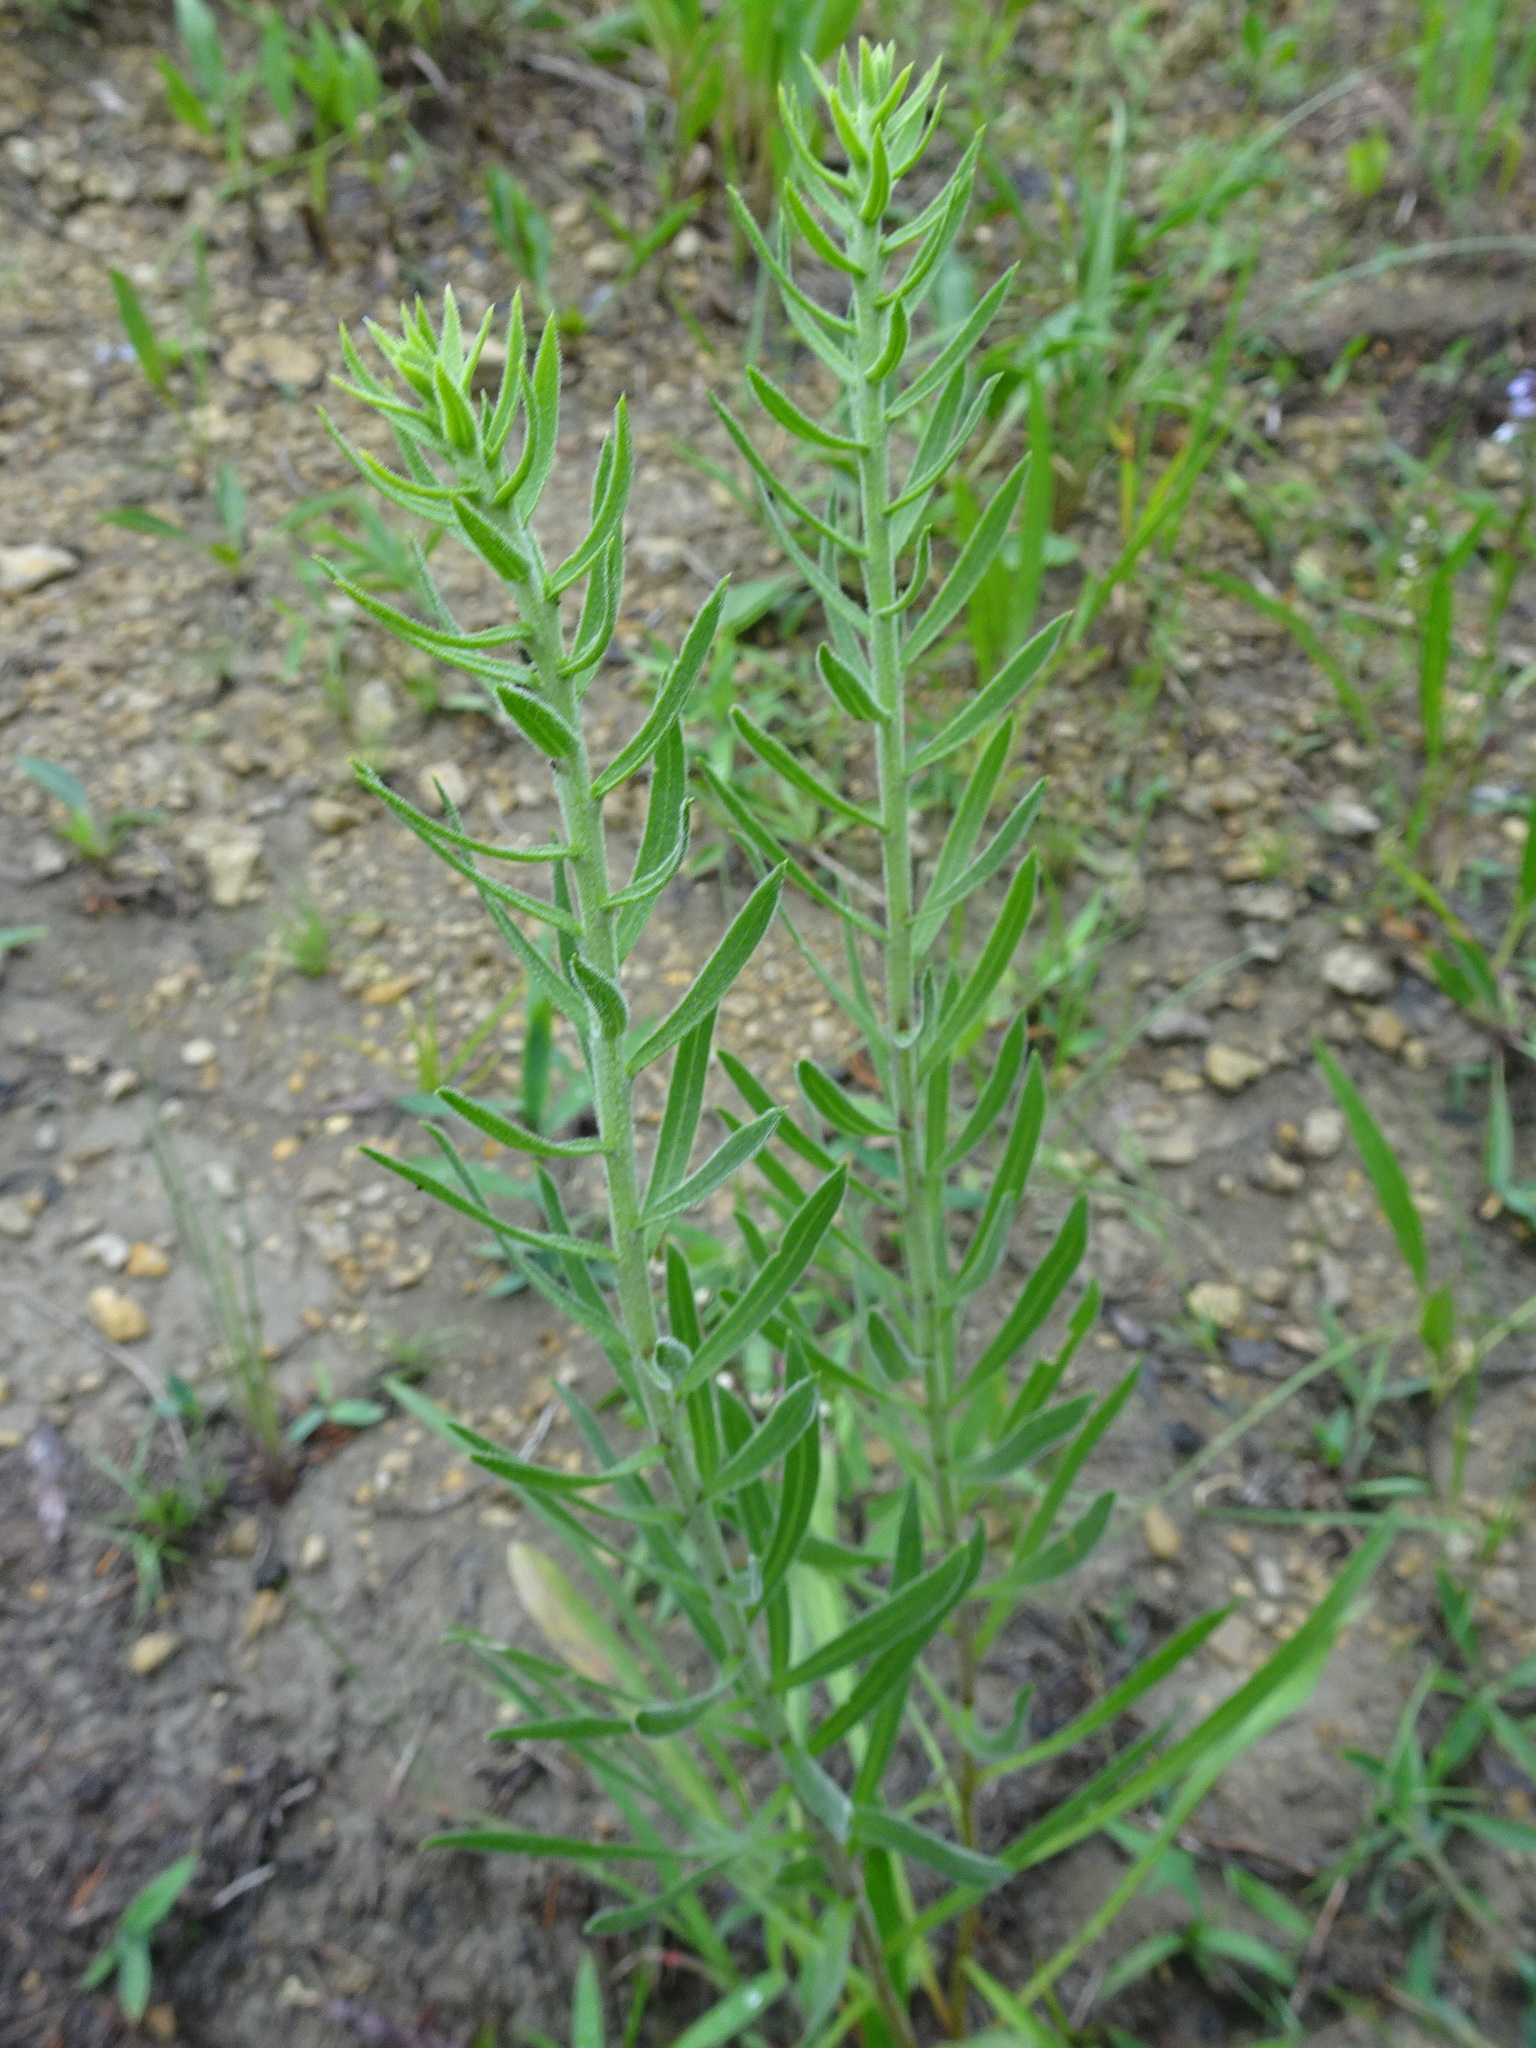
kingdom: Plantae
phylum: Tracheophyta
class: Magnoliopsida
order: Asterales
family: Asteraceae
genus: Liatris
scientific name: Liatris aspera
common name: Lacerate blazing-star
